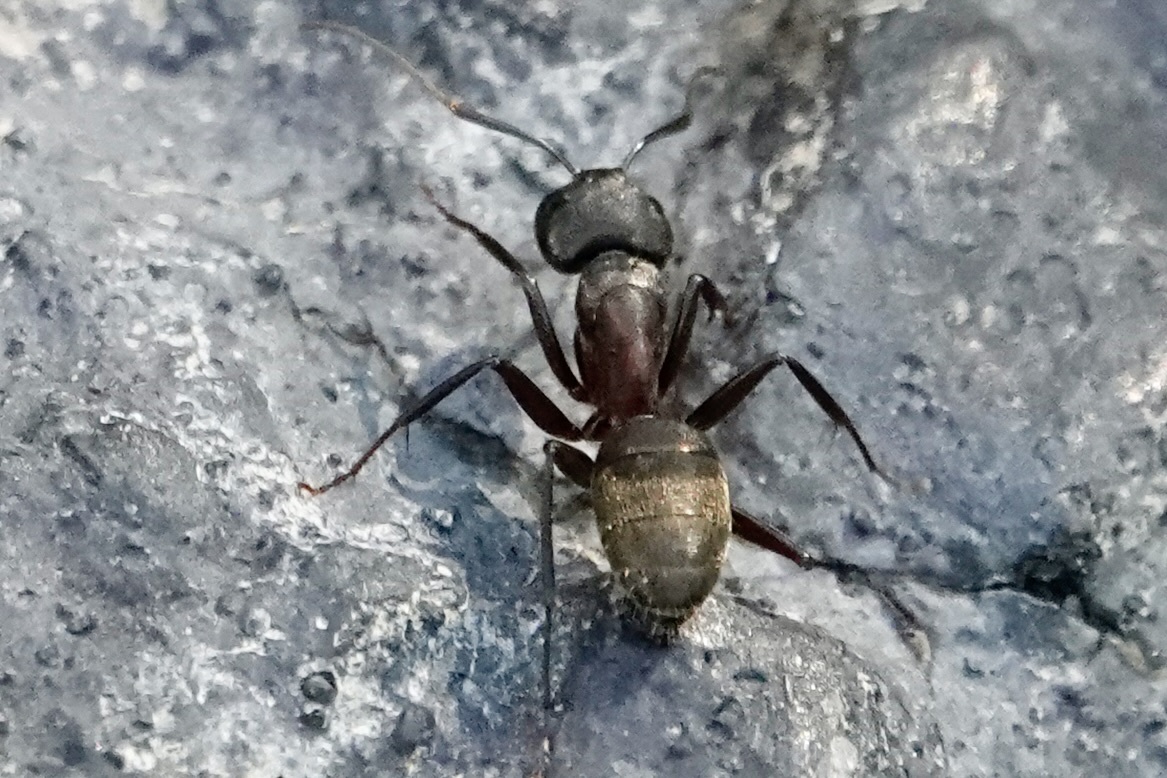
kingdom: Animalia
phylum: Arthropoda
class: Insecta
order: Hymenoptera
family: Formicidae
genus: Camponotus
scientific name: Camponotus chromaiodes
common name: Red carpenter ant
